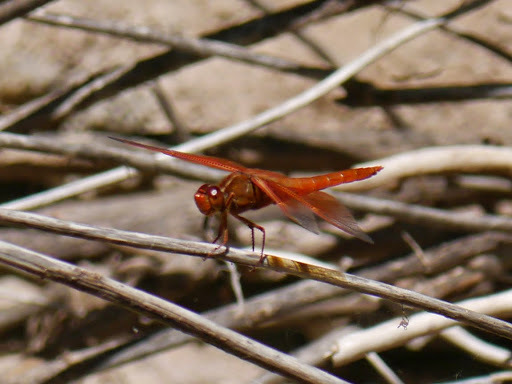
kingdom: Animalia
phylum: Arthropoda
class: Insecta
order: Odonata
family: Libellulidae
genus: Libellula
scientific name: Libellula saturata
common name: Flame skimmer
